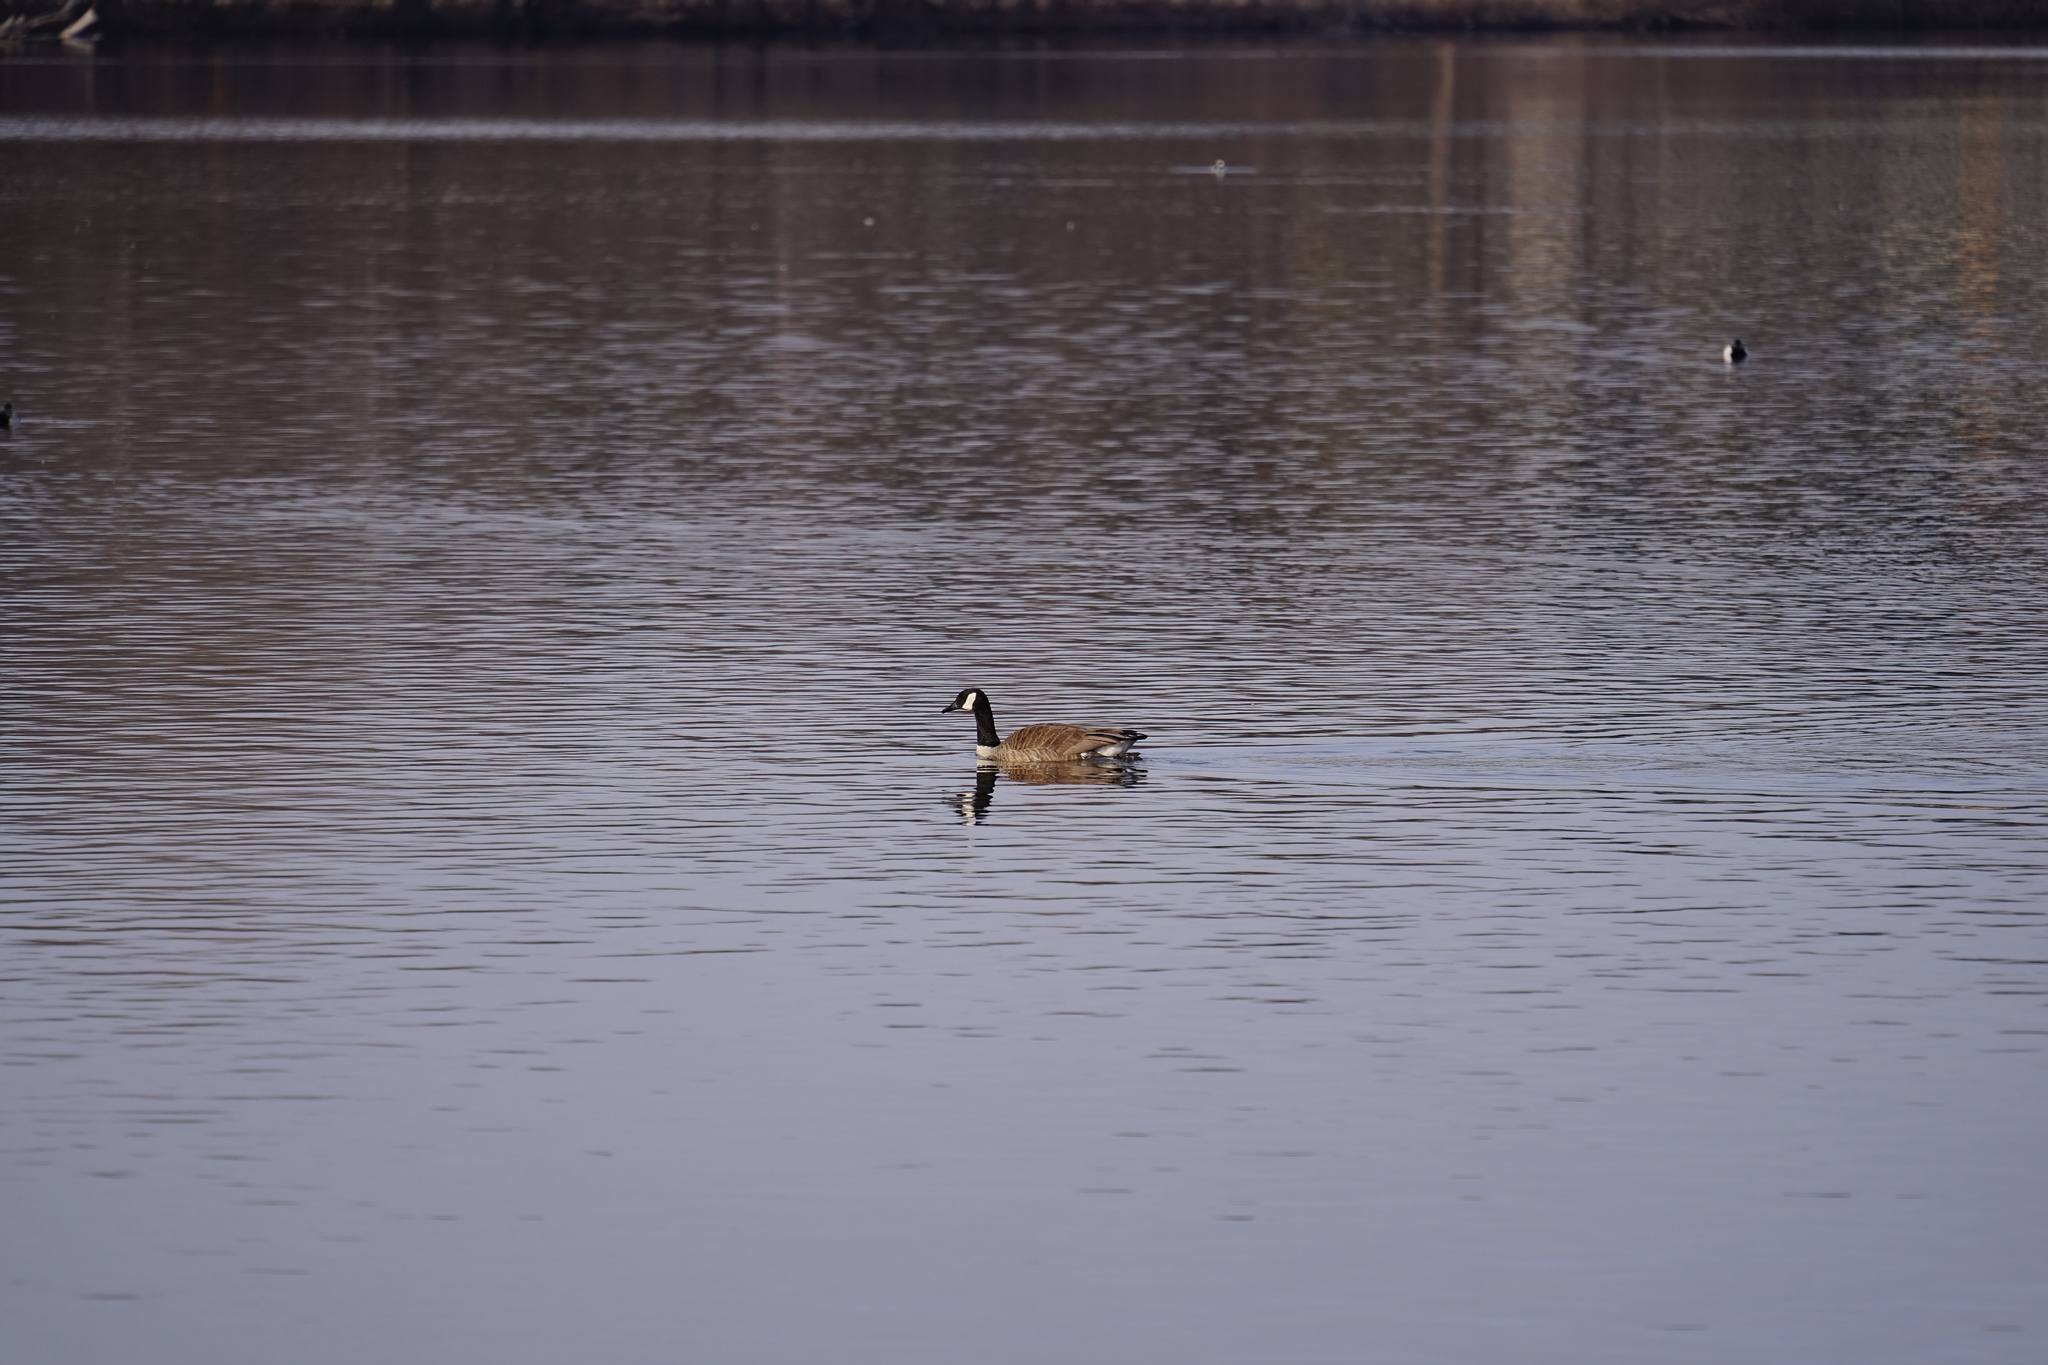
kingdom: Animalia
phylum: Chordata
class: Aves
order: Anseriformes
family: Anatidae
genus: Branta
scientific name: Branta canadensis
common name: Canada goose
